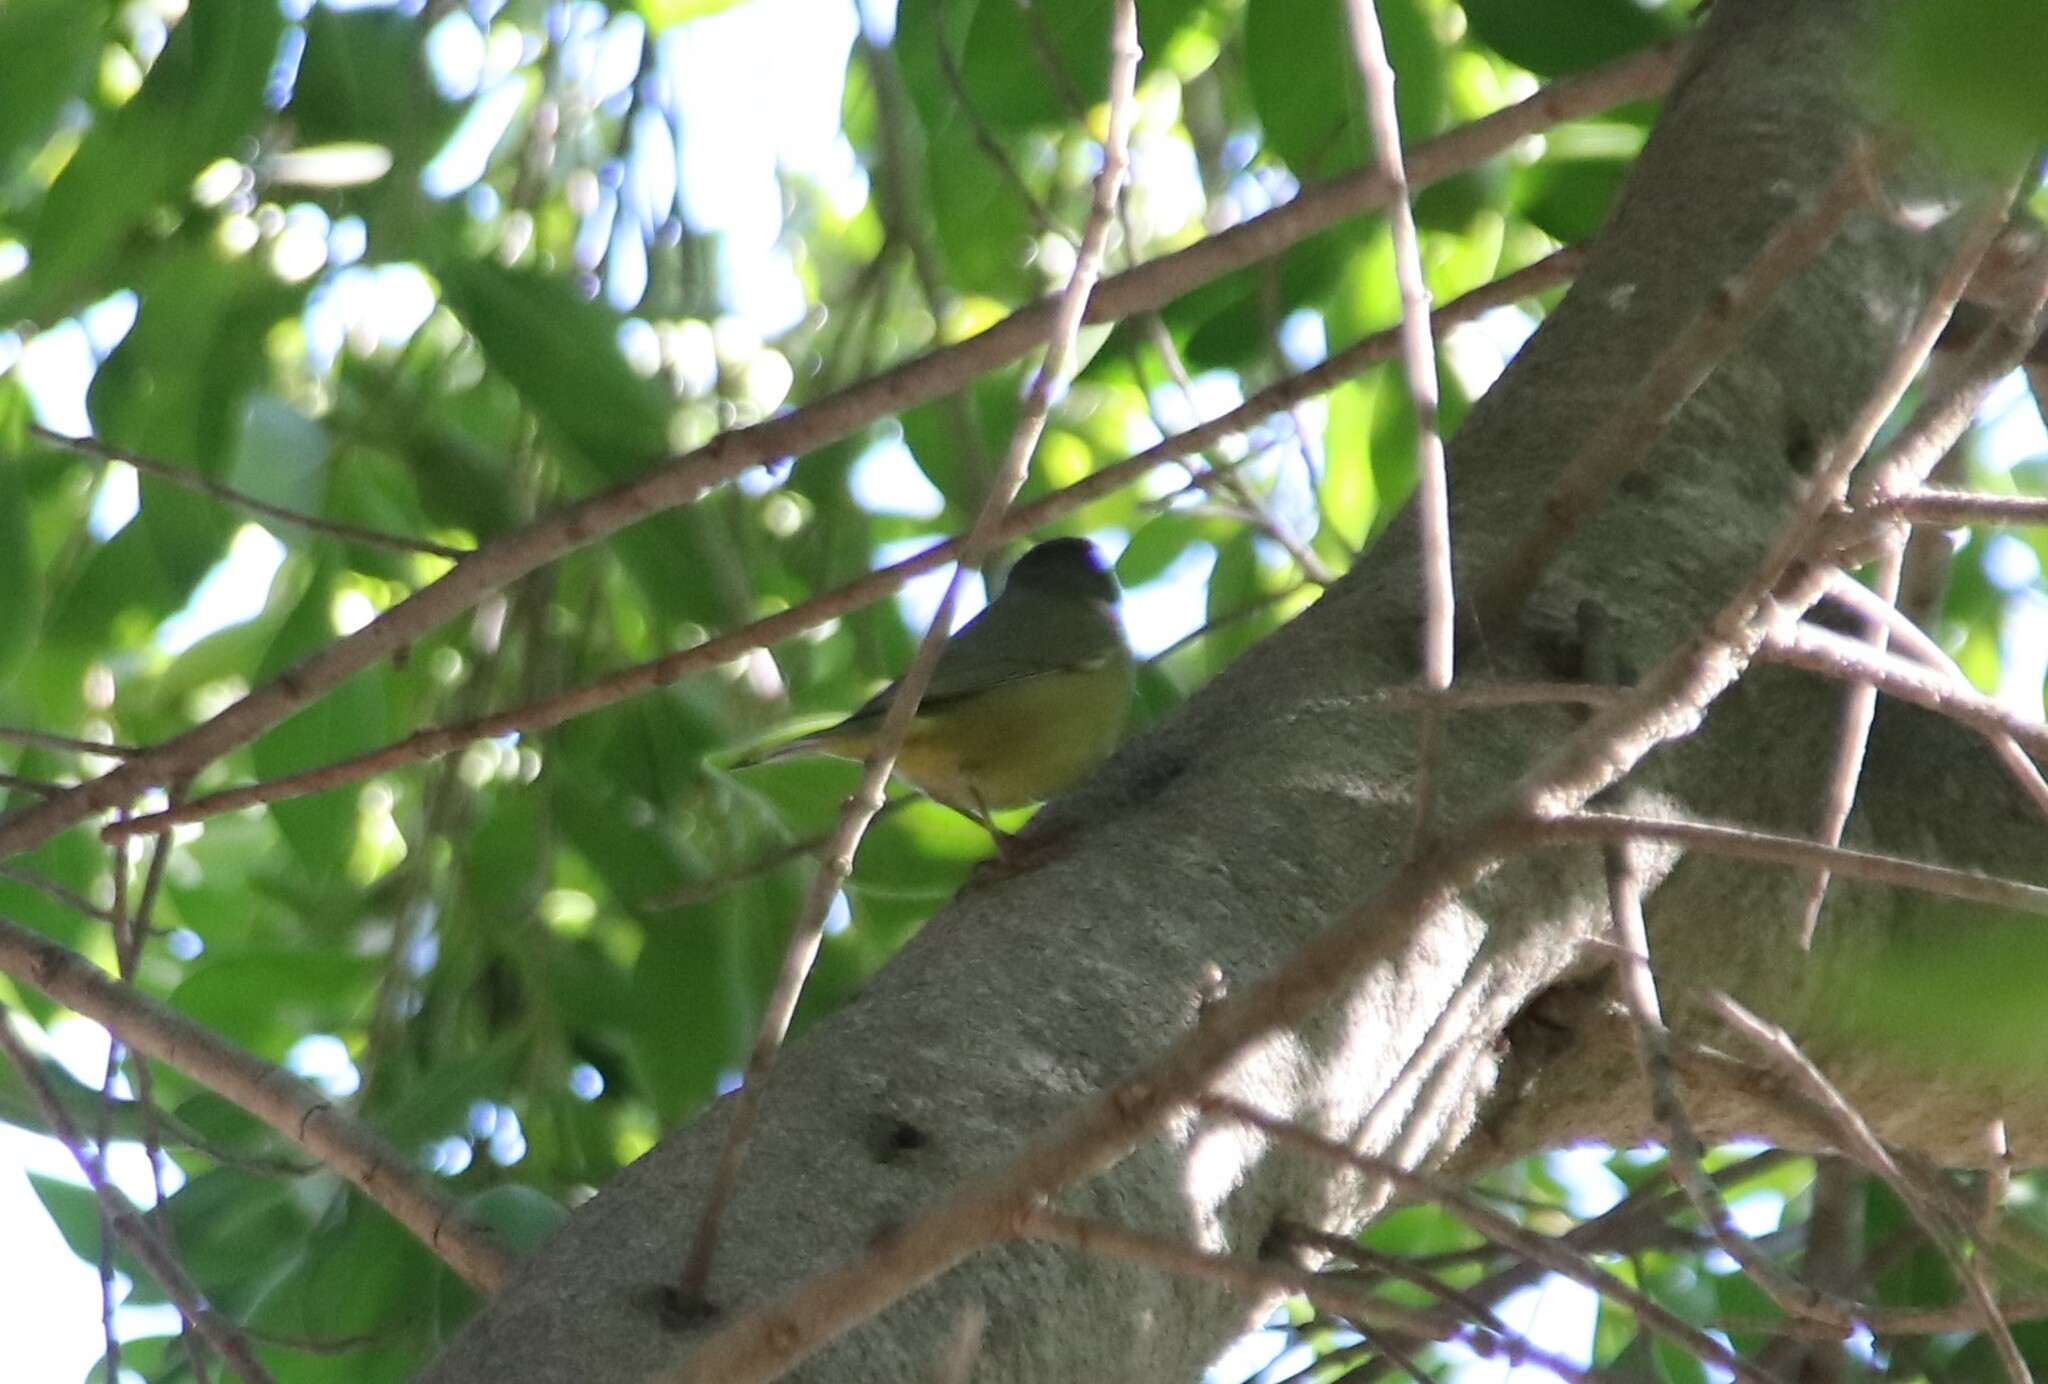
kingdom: Animalia
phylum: Chordata
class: Aves
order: Passeriformes
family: Parulidae
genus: Leiothlypis
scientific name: Leiothlypis celata
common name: Orange-crowned warbler
